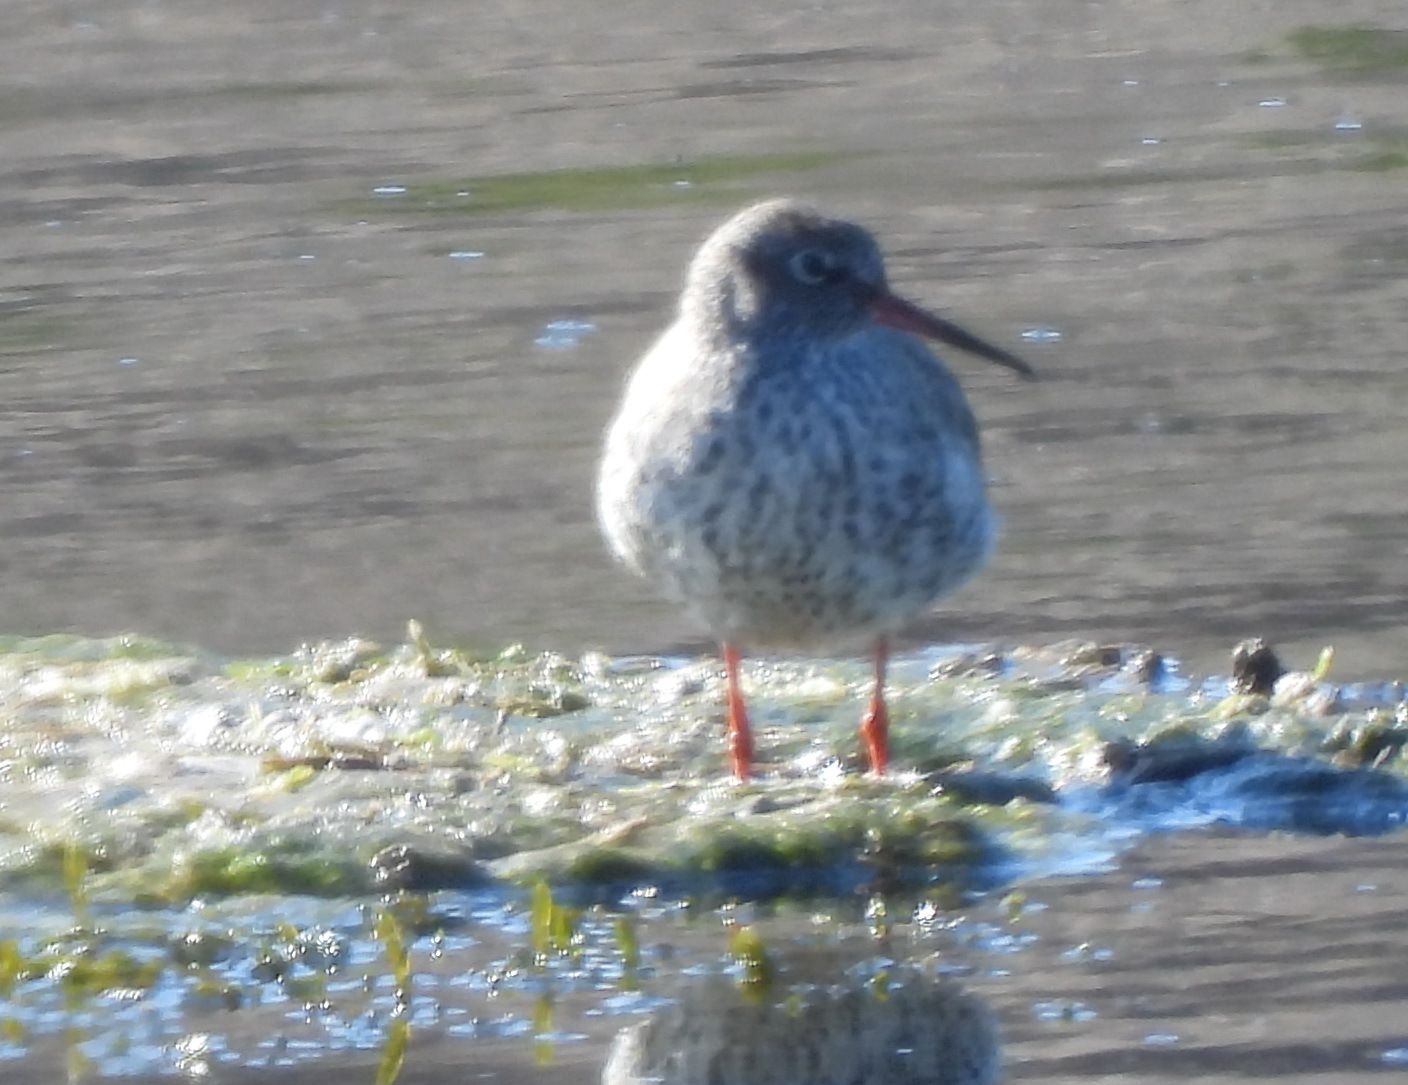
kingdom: Animalia
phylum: Chordata
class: Aves
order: Charadriiformes
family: Scolopacidae
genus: Tringa
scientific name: Tringa totanus
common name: Common redshank
